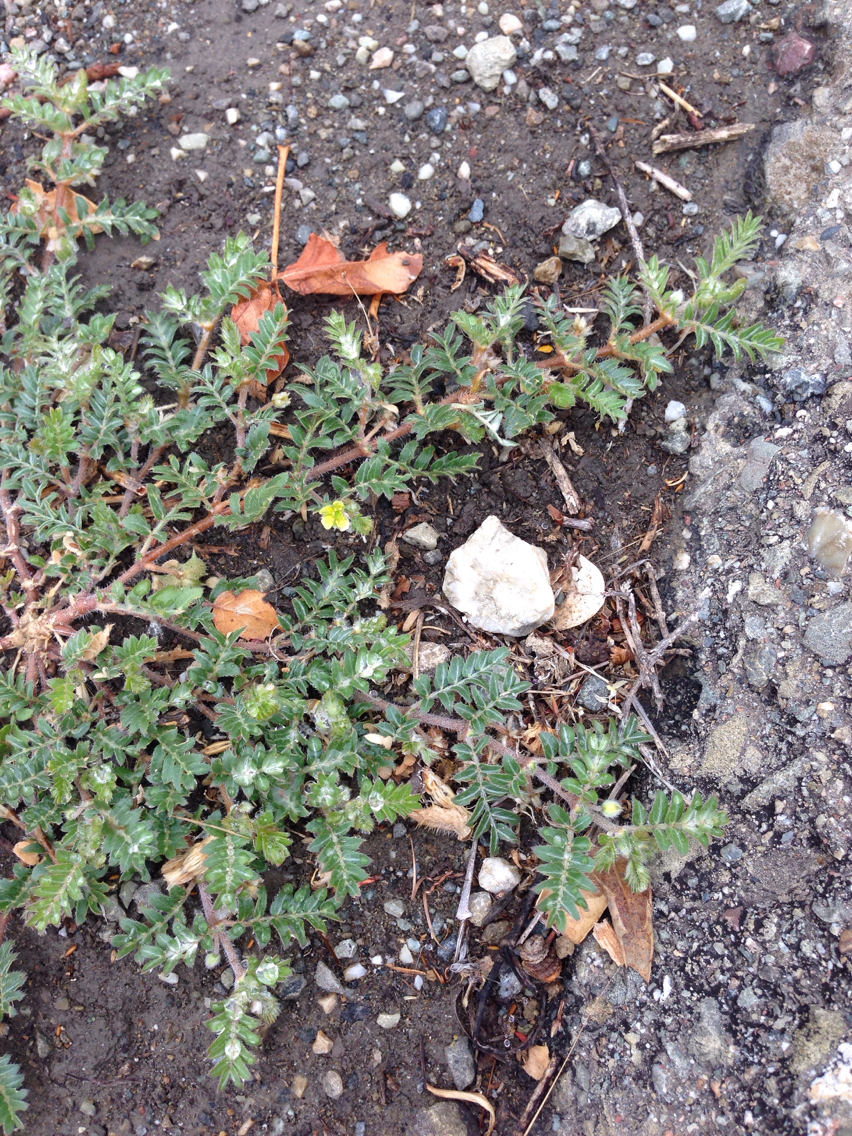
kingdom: Plantae
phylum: Tracheophyta
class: Magnoliopsida
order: Zygophyllales
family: Zygophyllaceae
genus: Tribulus
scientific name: Tribulus terrestris
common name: Puncturevine
